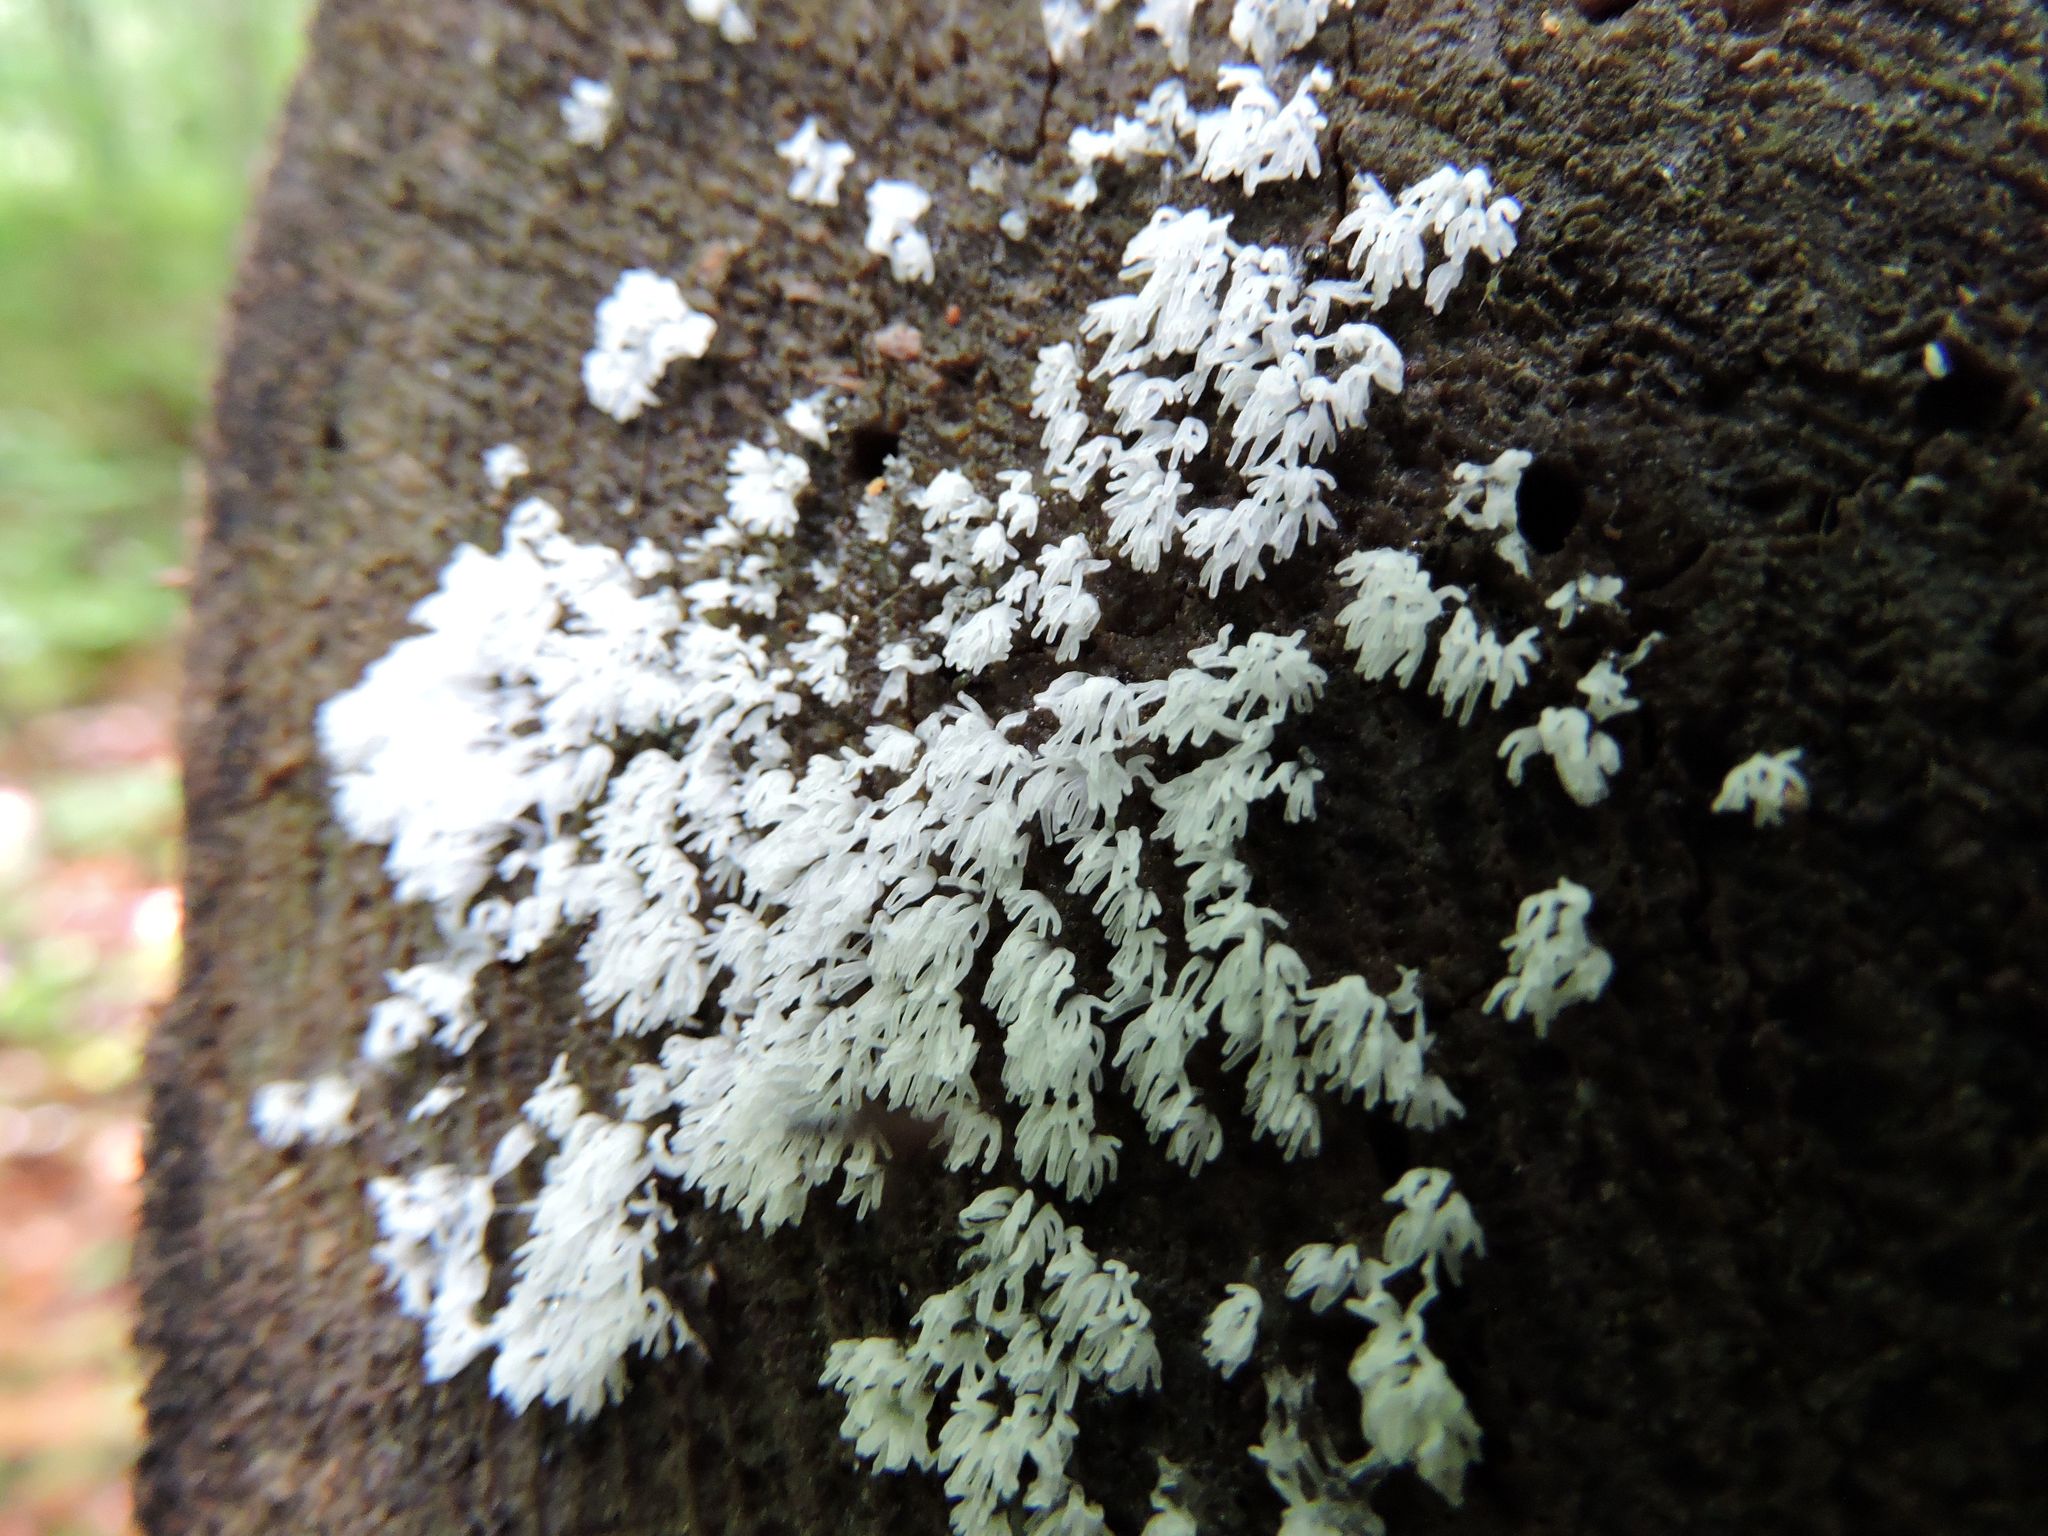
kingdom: Protozoa
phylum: Mycetozoa
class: Protosteliomycetes
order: Ceratiomyxales
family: Ceratiomyxaceae
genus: Ceratiomyxa
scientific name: Ceratiomyxa fruticulosa
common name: Honeycomb coral slime mold
